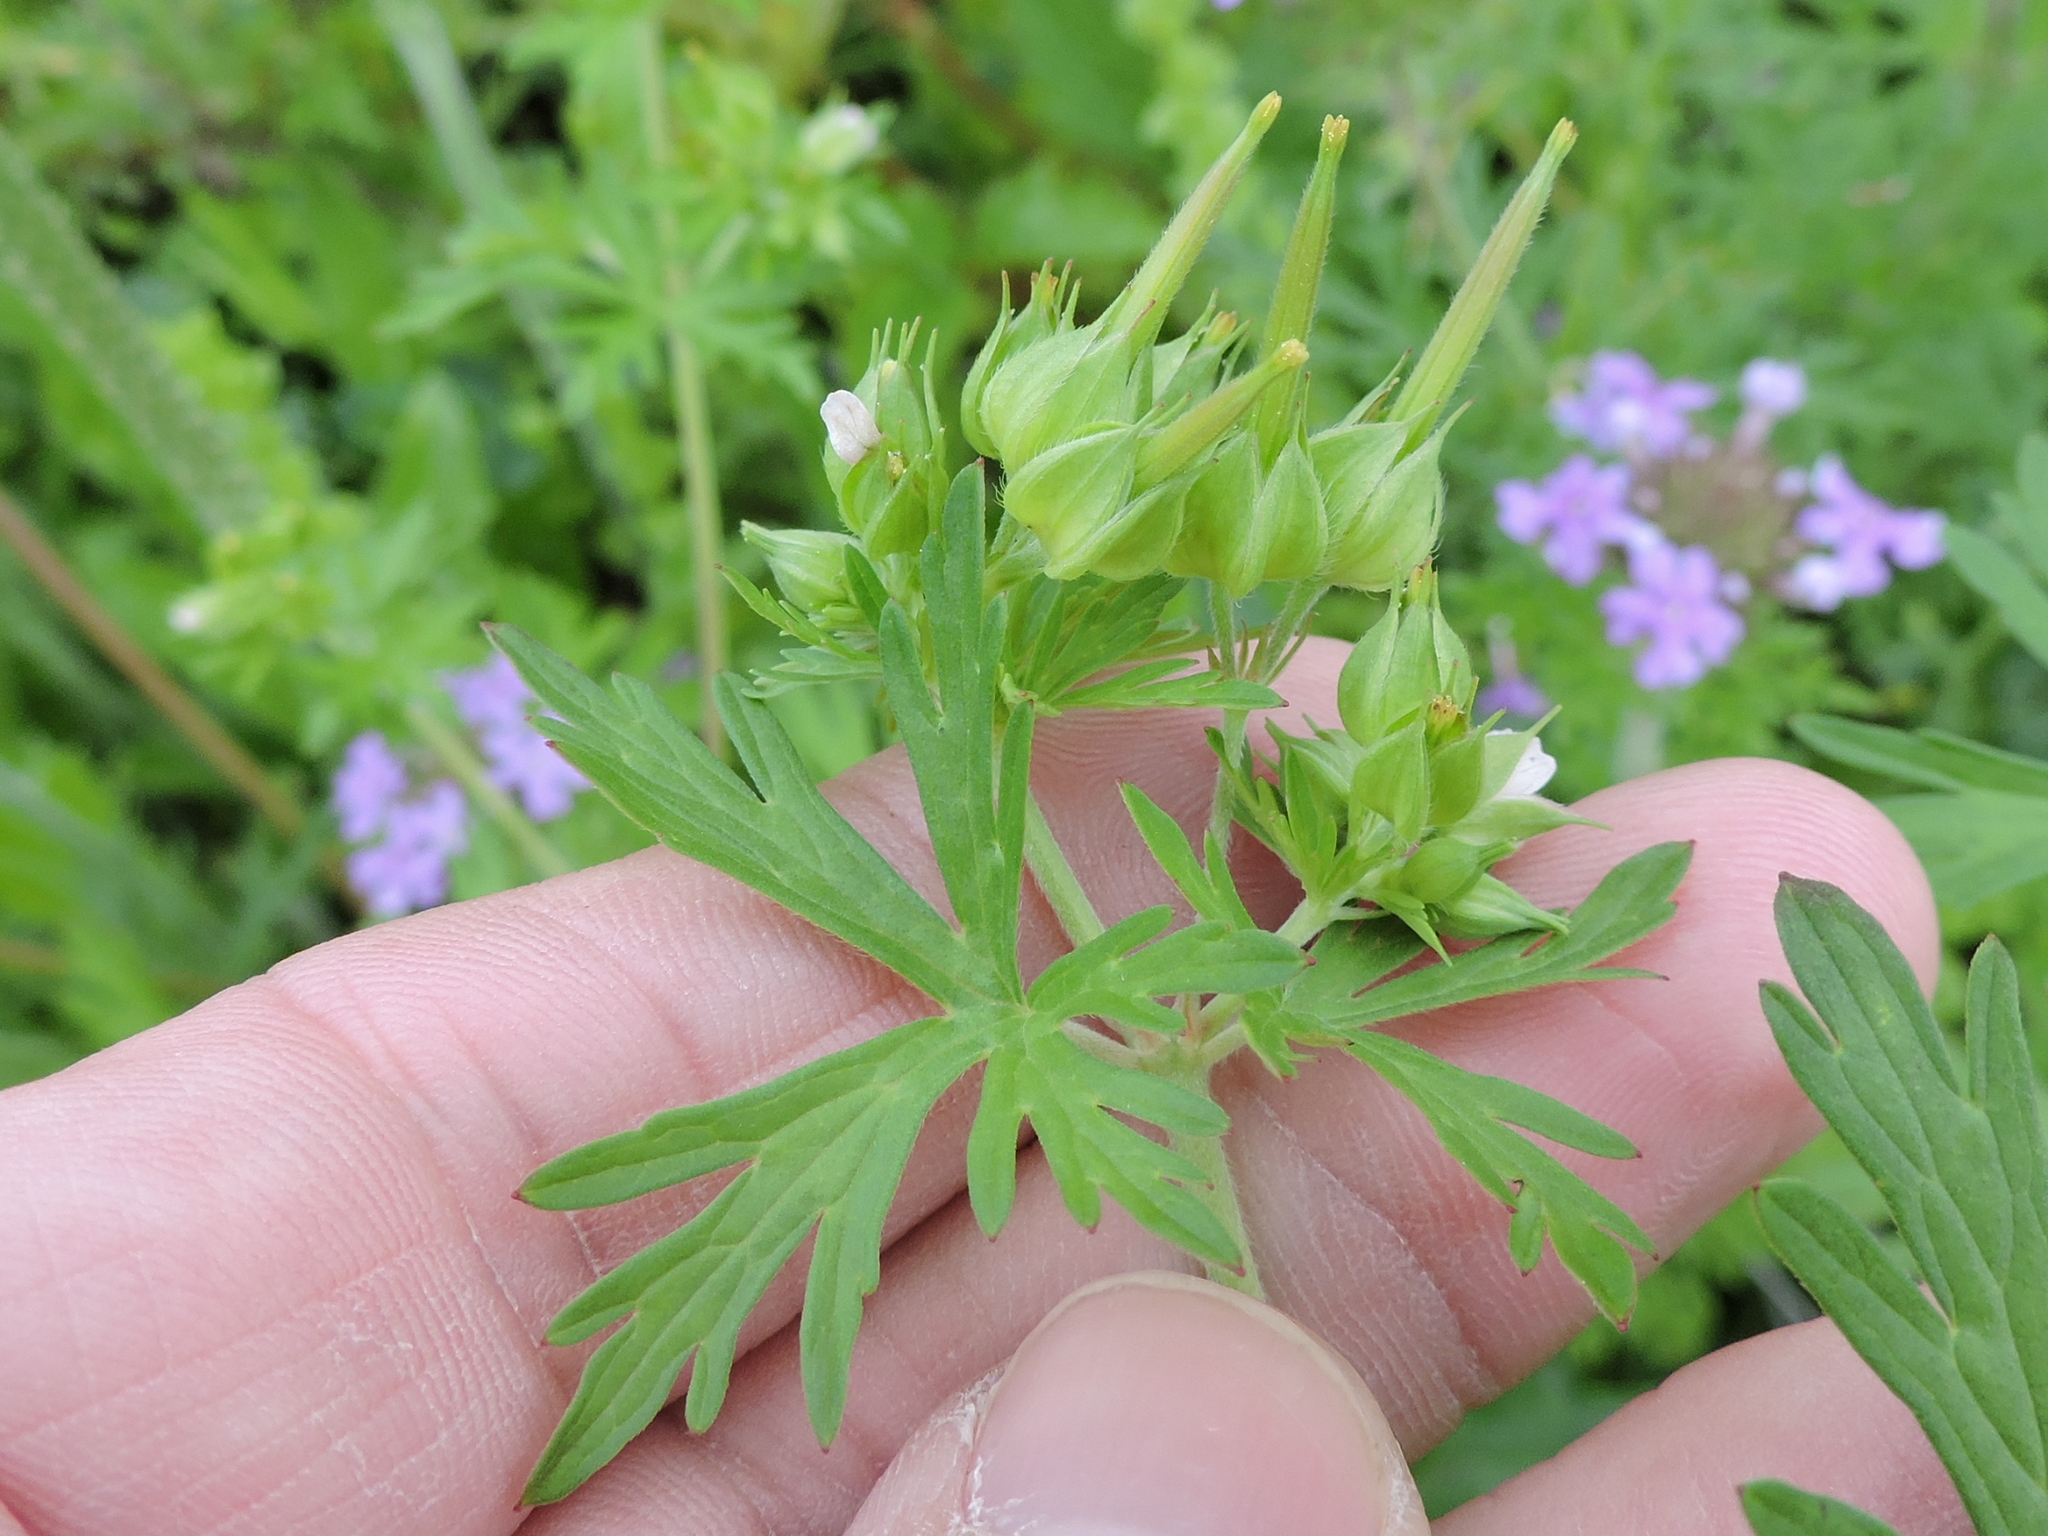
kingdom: Plantae
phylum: Tracheophyta
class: Magnoliopsida
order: Geraniales
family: Geraniaceae
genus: Geranium
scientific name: Geranium carolinianum
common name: Carolina crane's-bill
